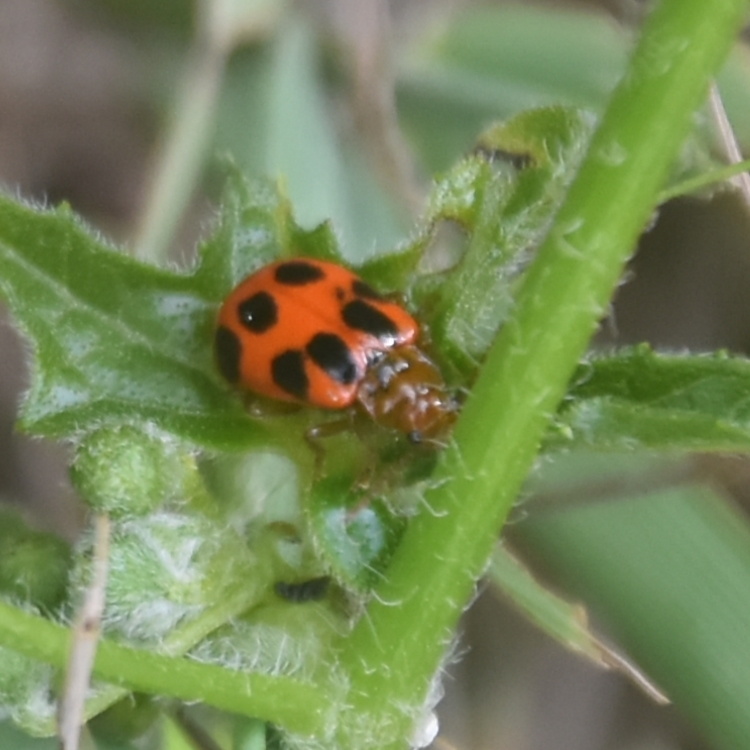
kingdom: Animalia
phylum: Arthropoda
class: Insecta
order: Coleoptera
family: Chrysomelidae
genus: Paridea
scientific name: Paridea
